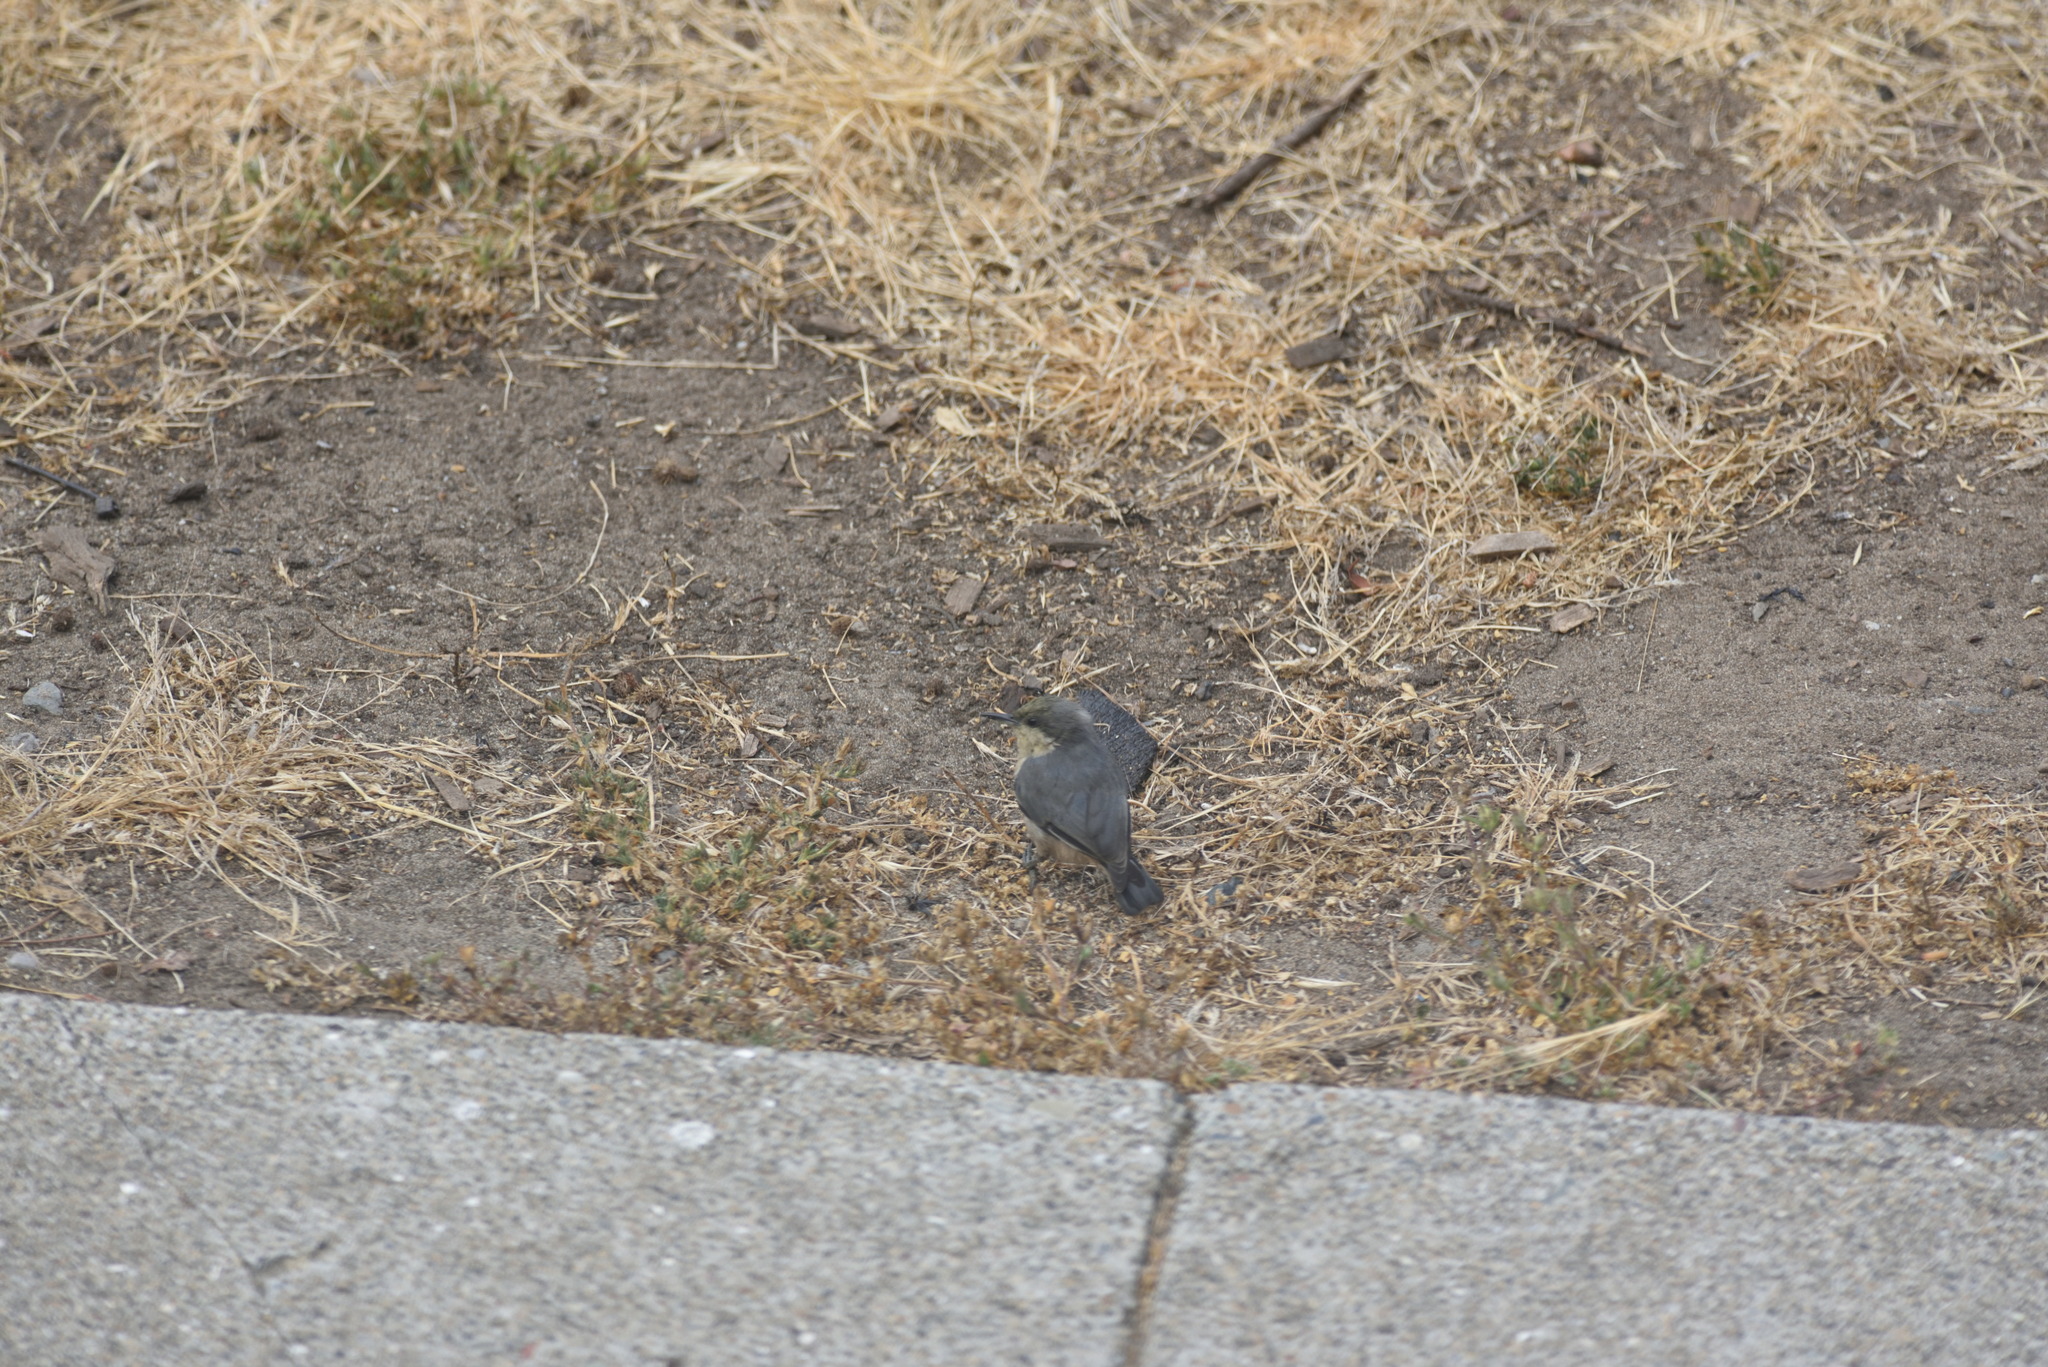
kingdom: Animalia
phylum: Chordata
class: Aves
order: Passeriformes
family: Sittidae
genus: Sitta
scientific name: Sitta pygmaea
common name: Pygmy nuthatch
